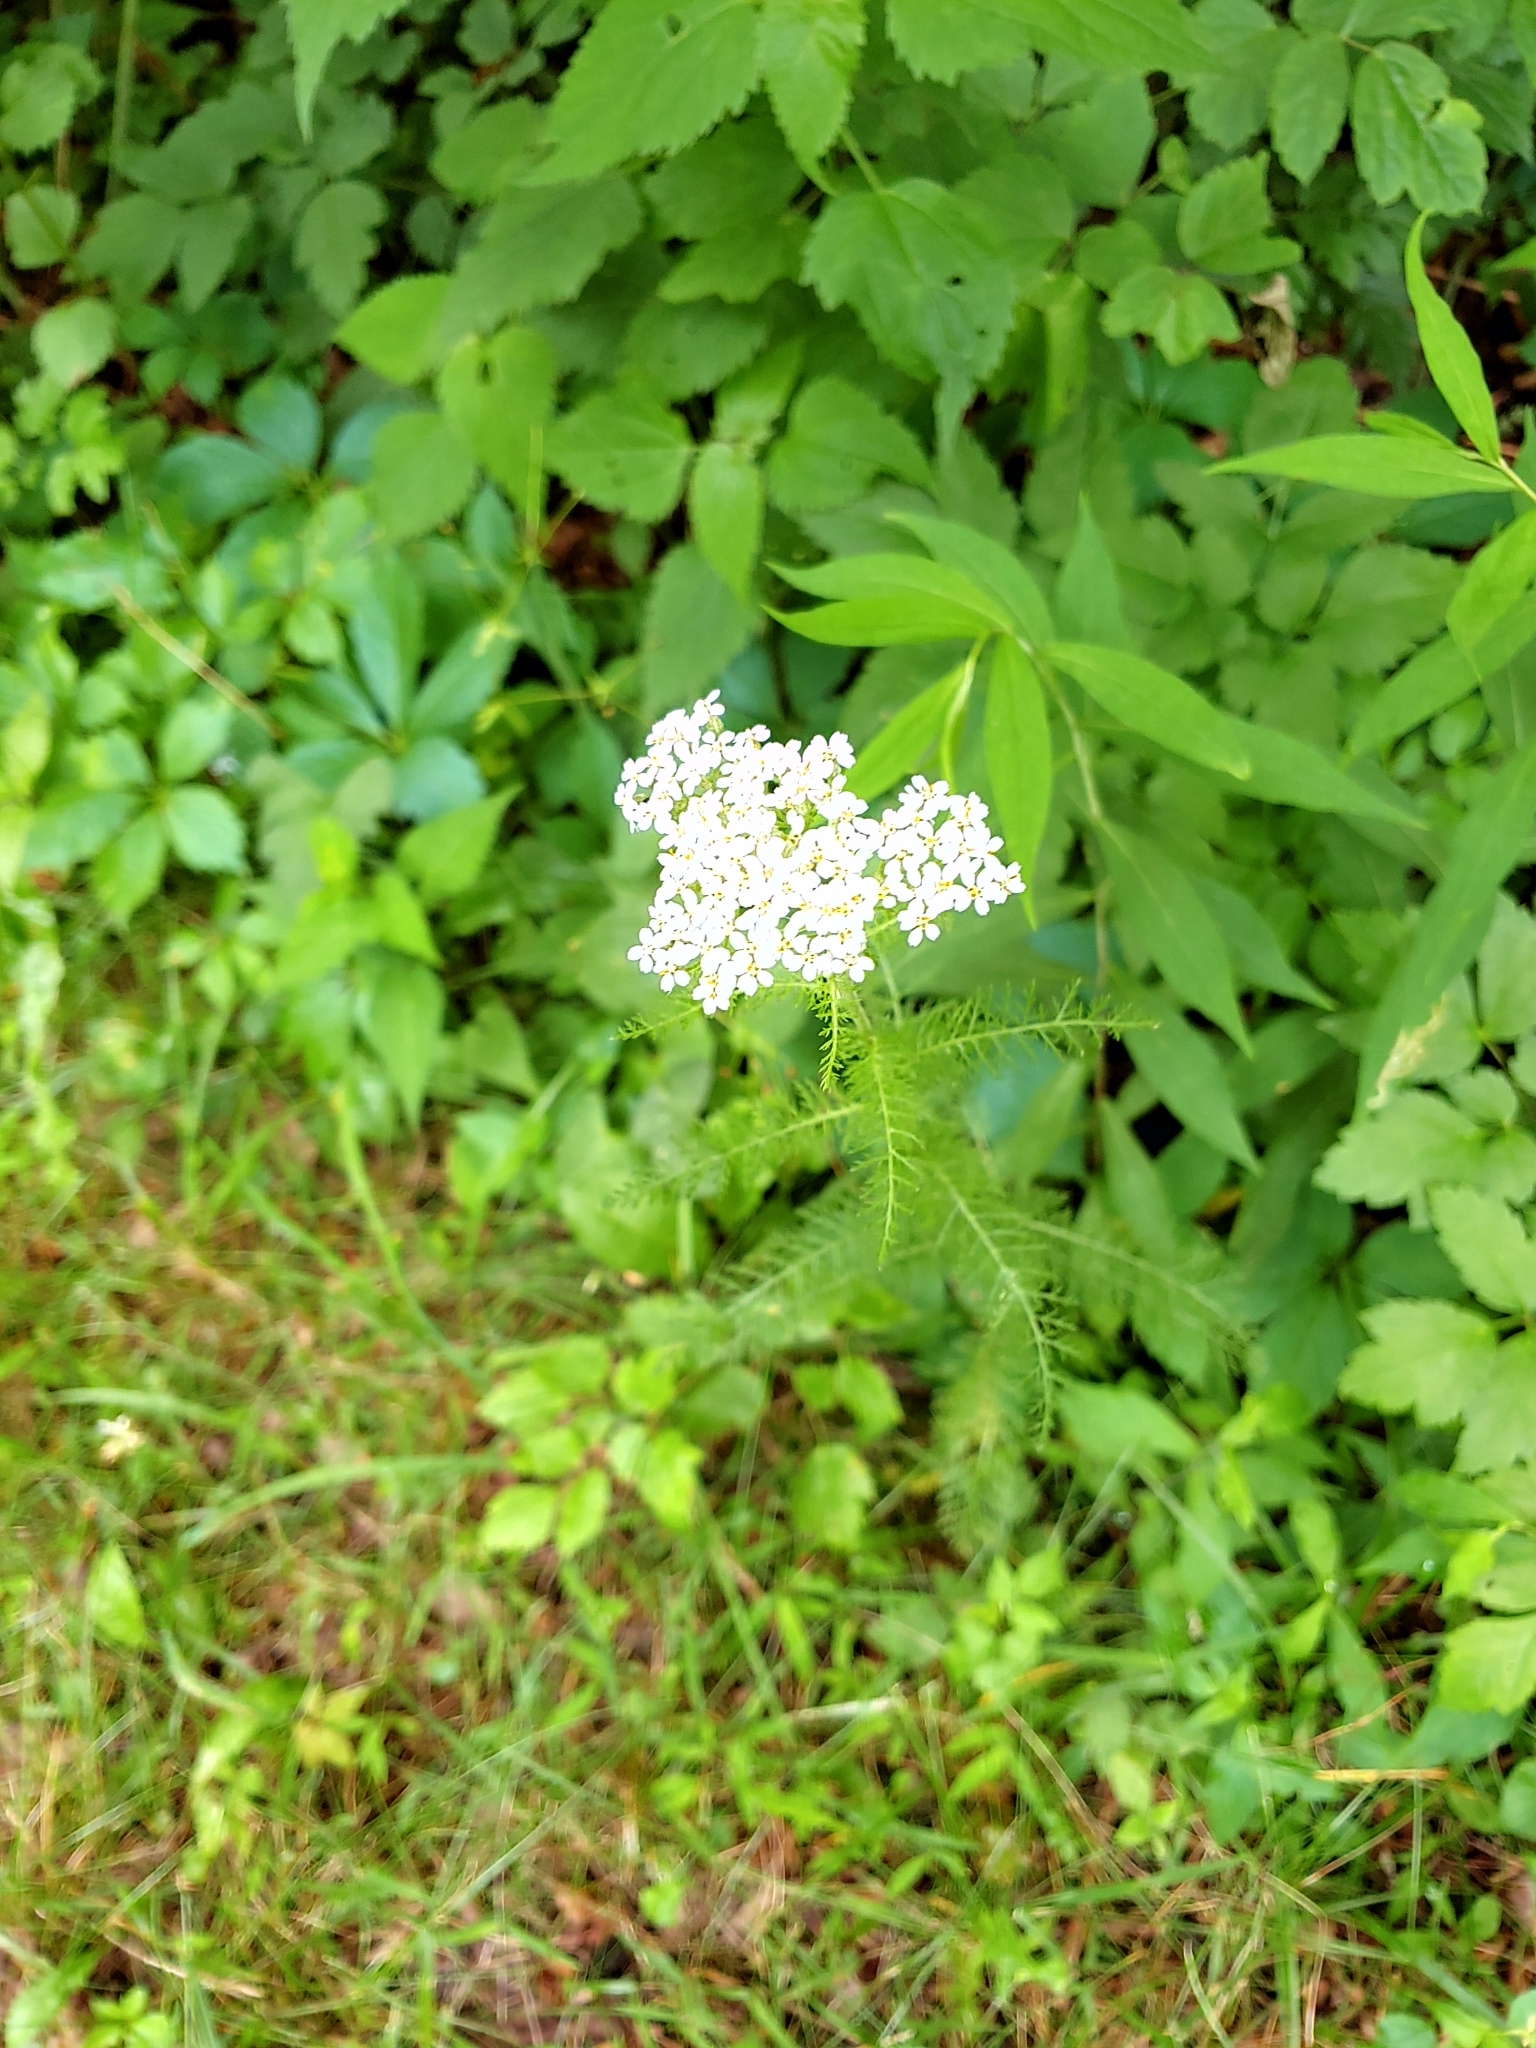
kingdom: Plantae
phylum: Tracheophyta
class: Magnoliopsida
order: Asterales
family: Asteraceae
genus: Achillea
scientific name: Achillea millefolium
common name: Yarrow
